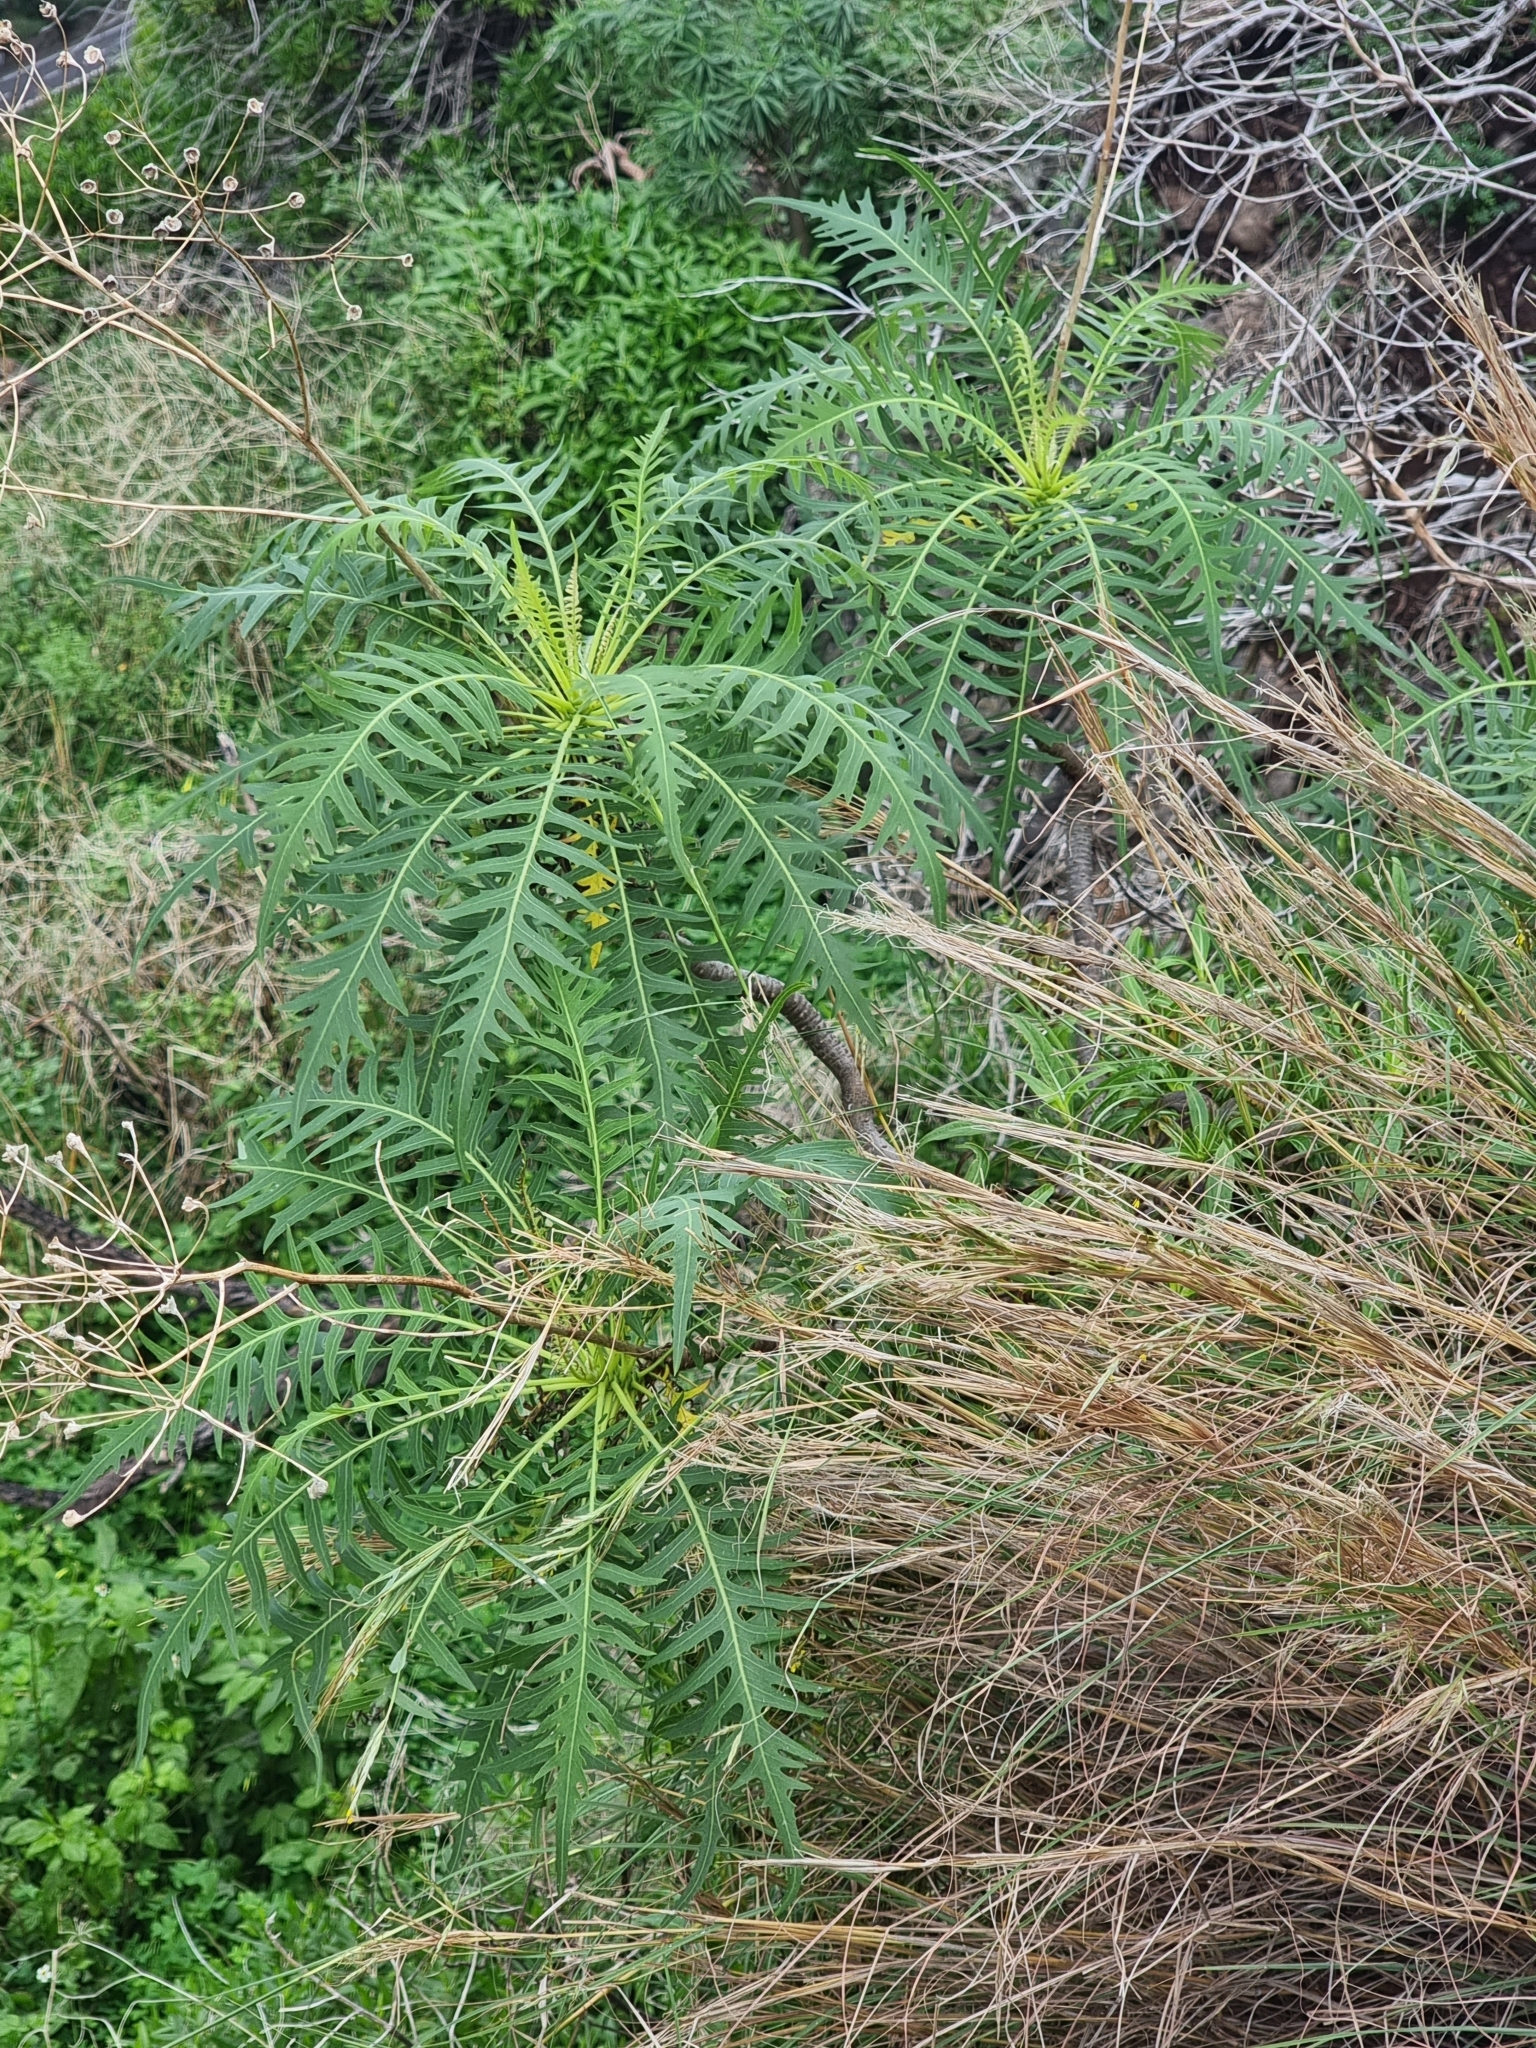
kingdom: Plantae
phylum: Tracheophyta
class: Magnoliopsida
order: Asterales
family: Asteraceae
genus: Sonchus
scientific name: Sonchus pinnatus
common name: Wing-leaved sow-thistle
